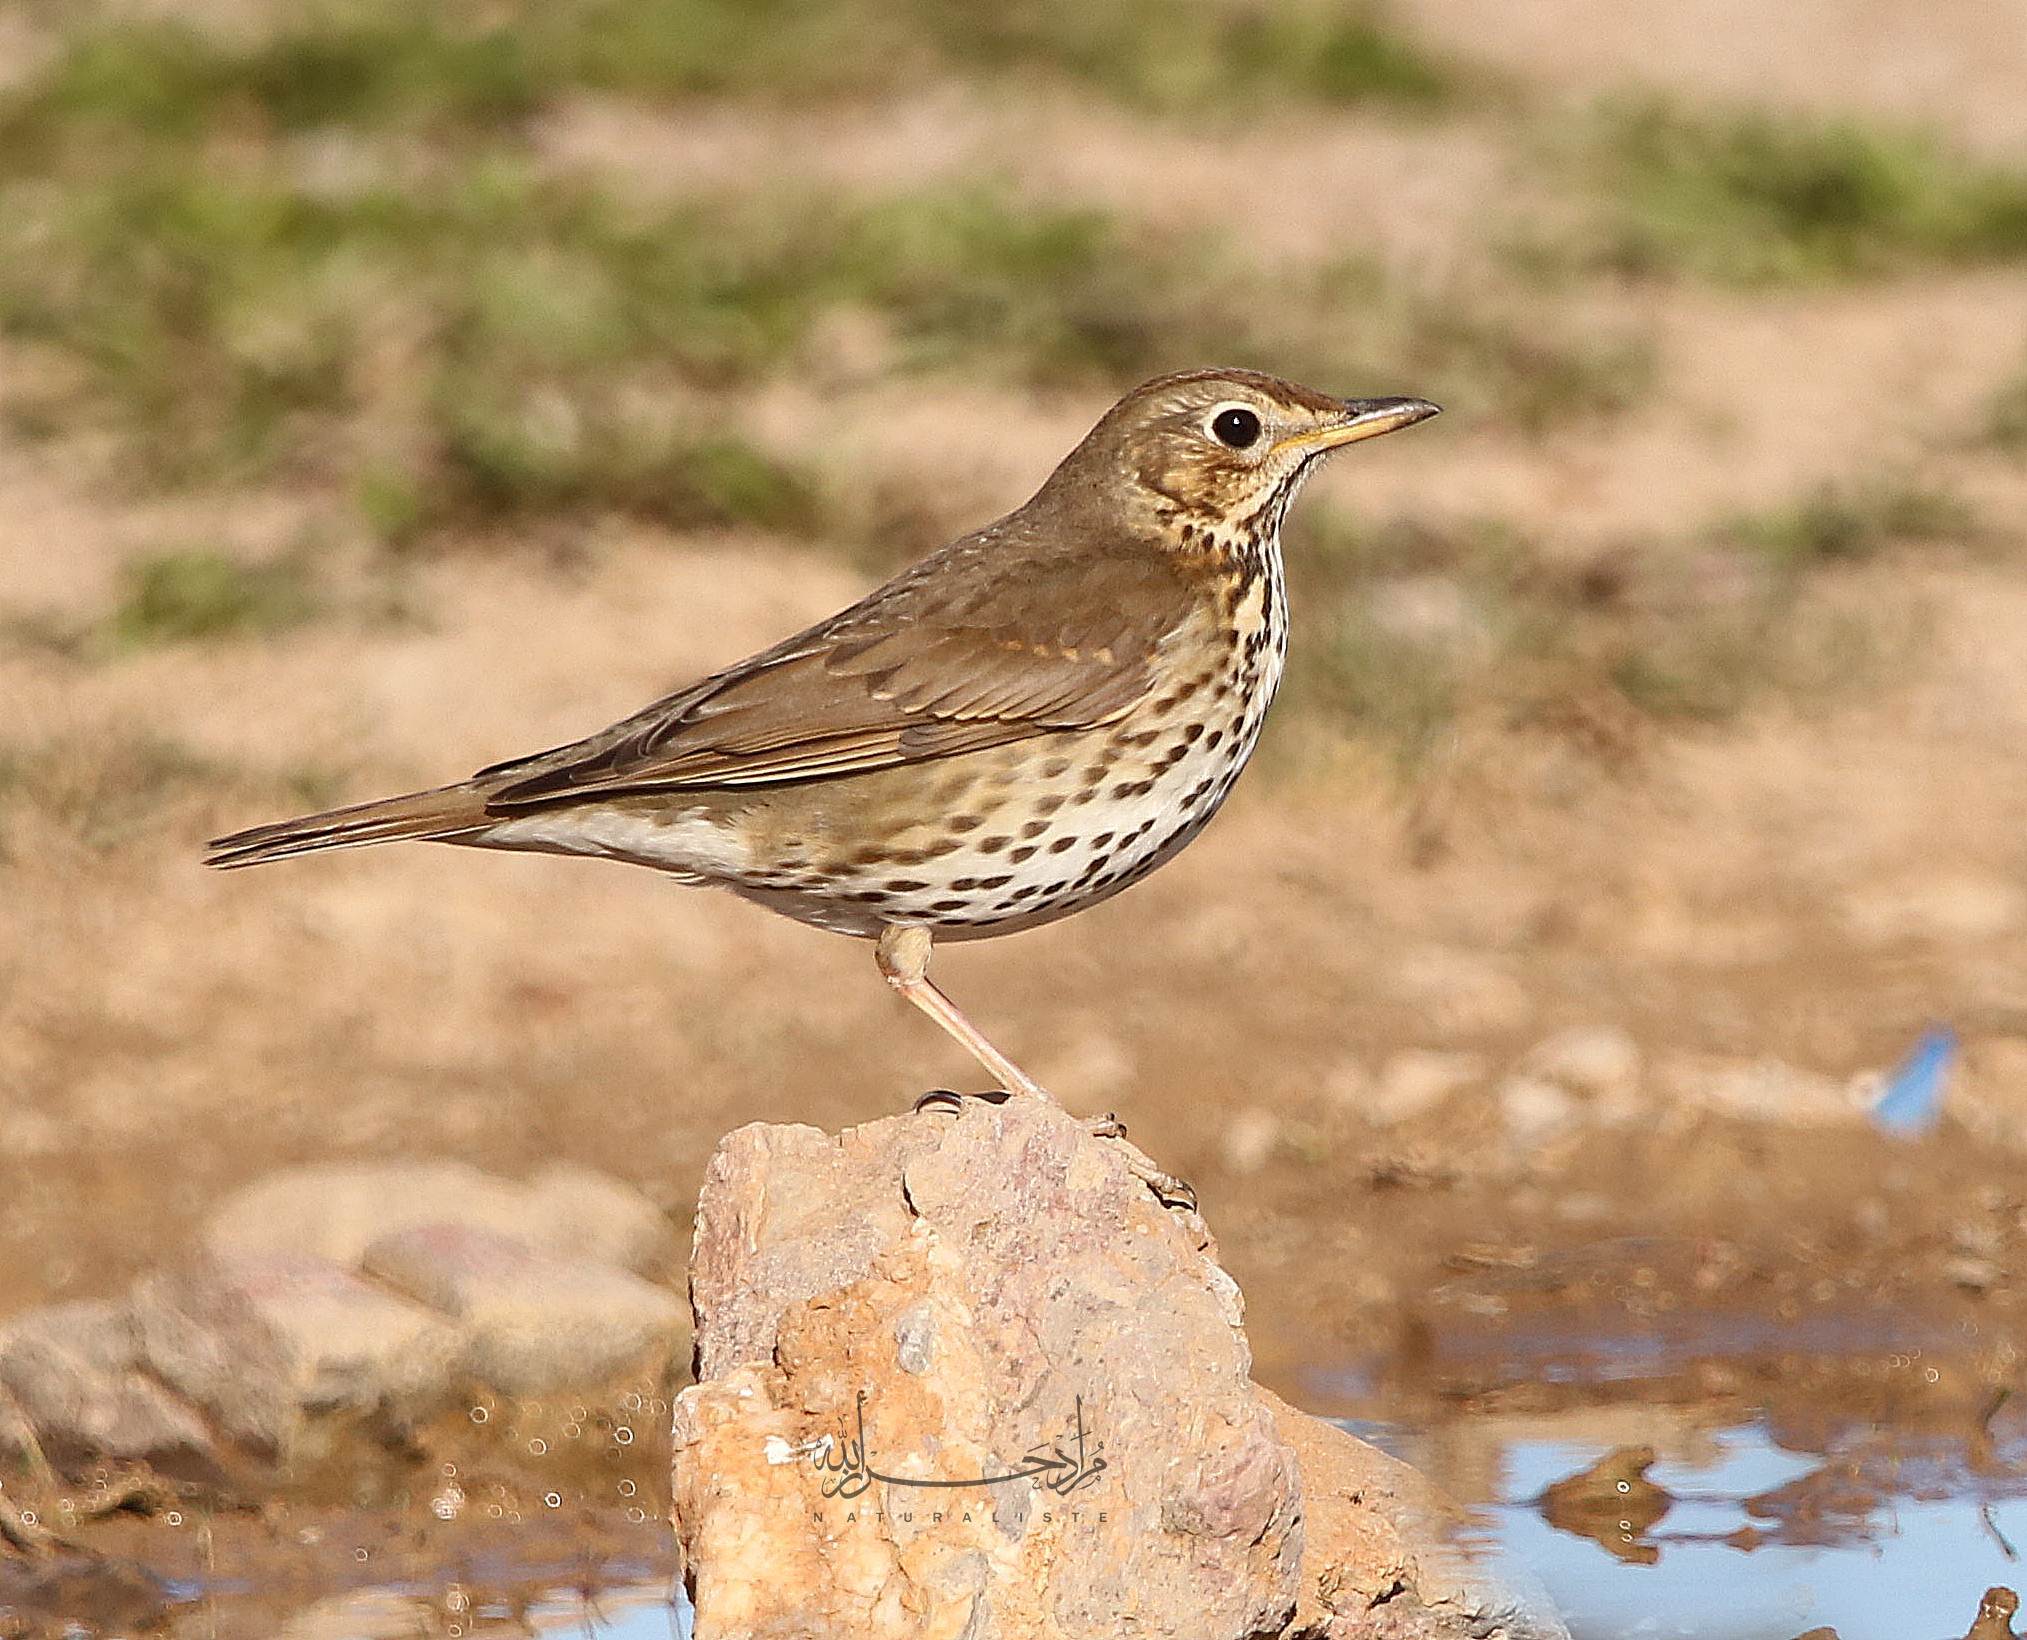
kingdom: Animalia
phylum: Chordata
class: Aves
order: Passeriformes
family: Turdidae
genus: Turdus
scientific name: Turdus philomelos
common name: Song thrush
